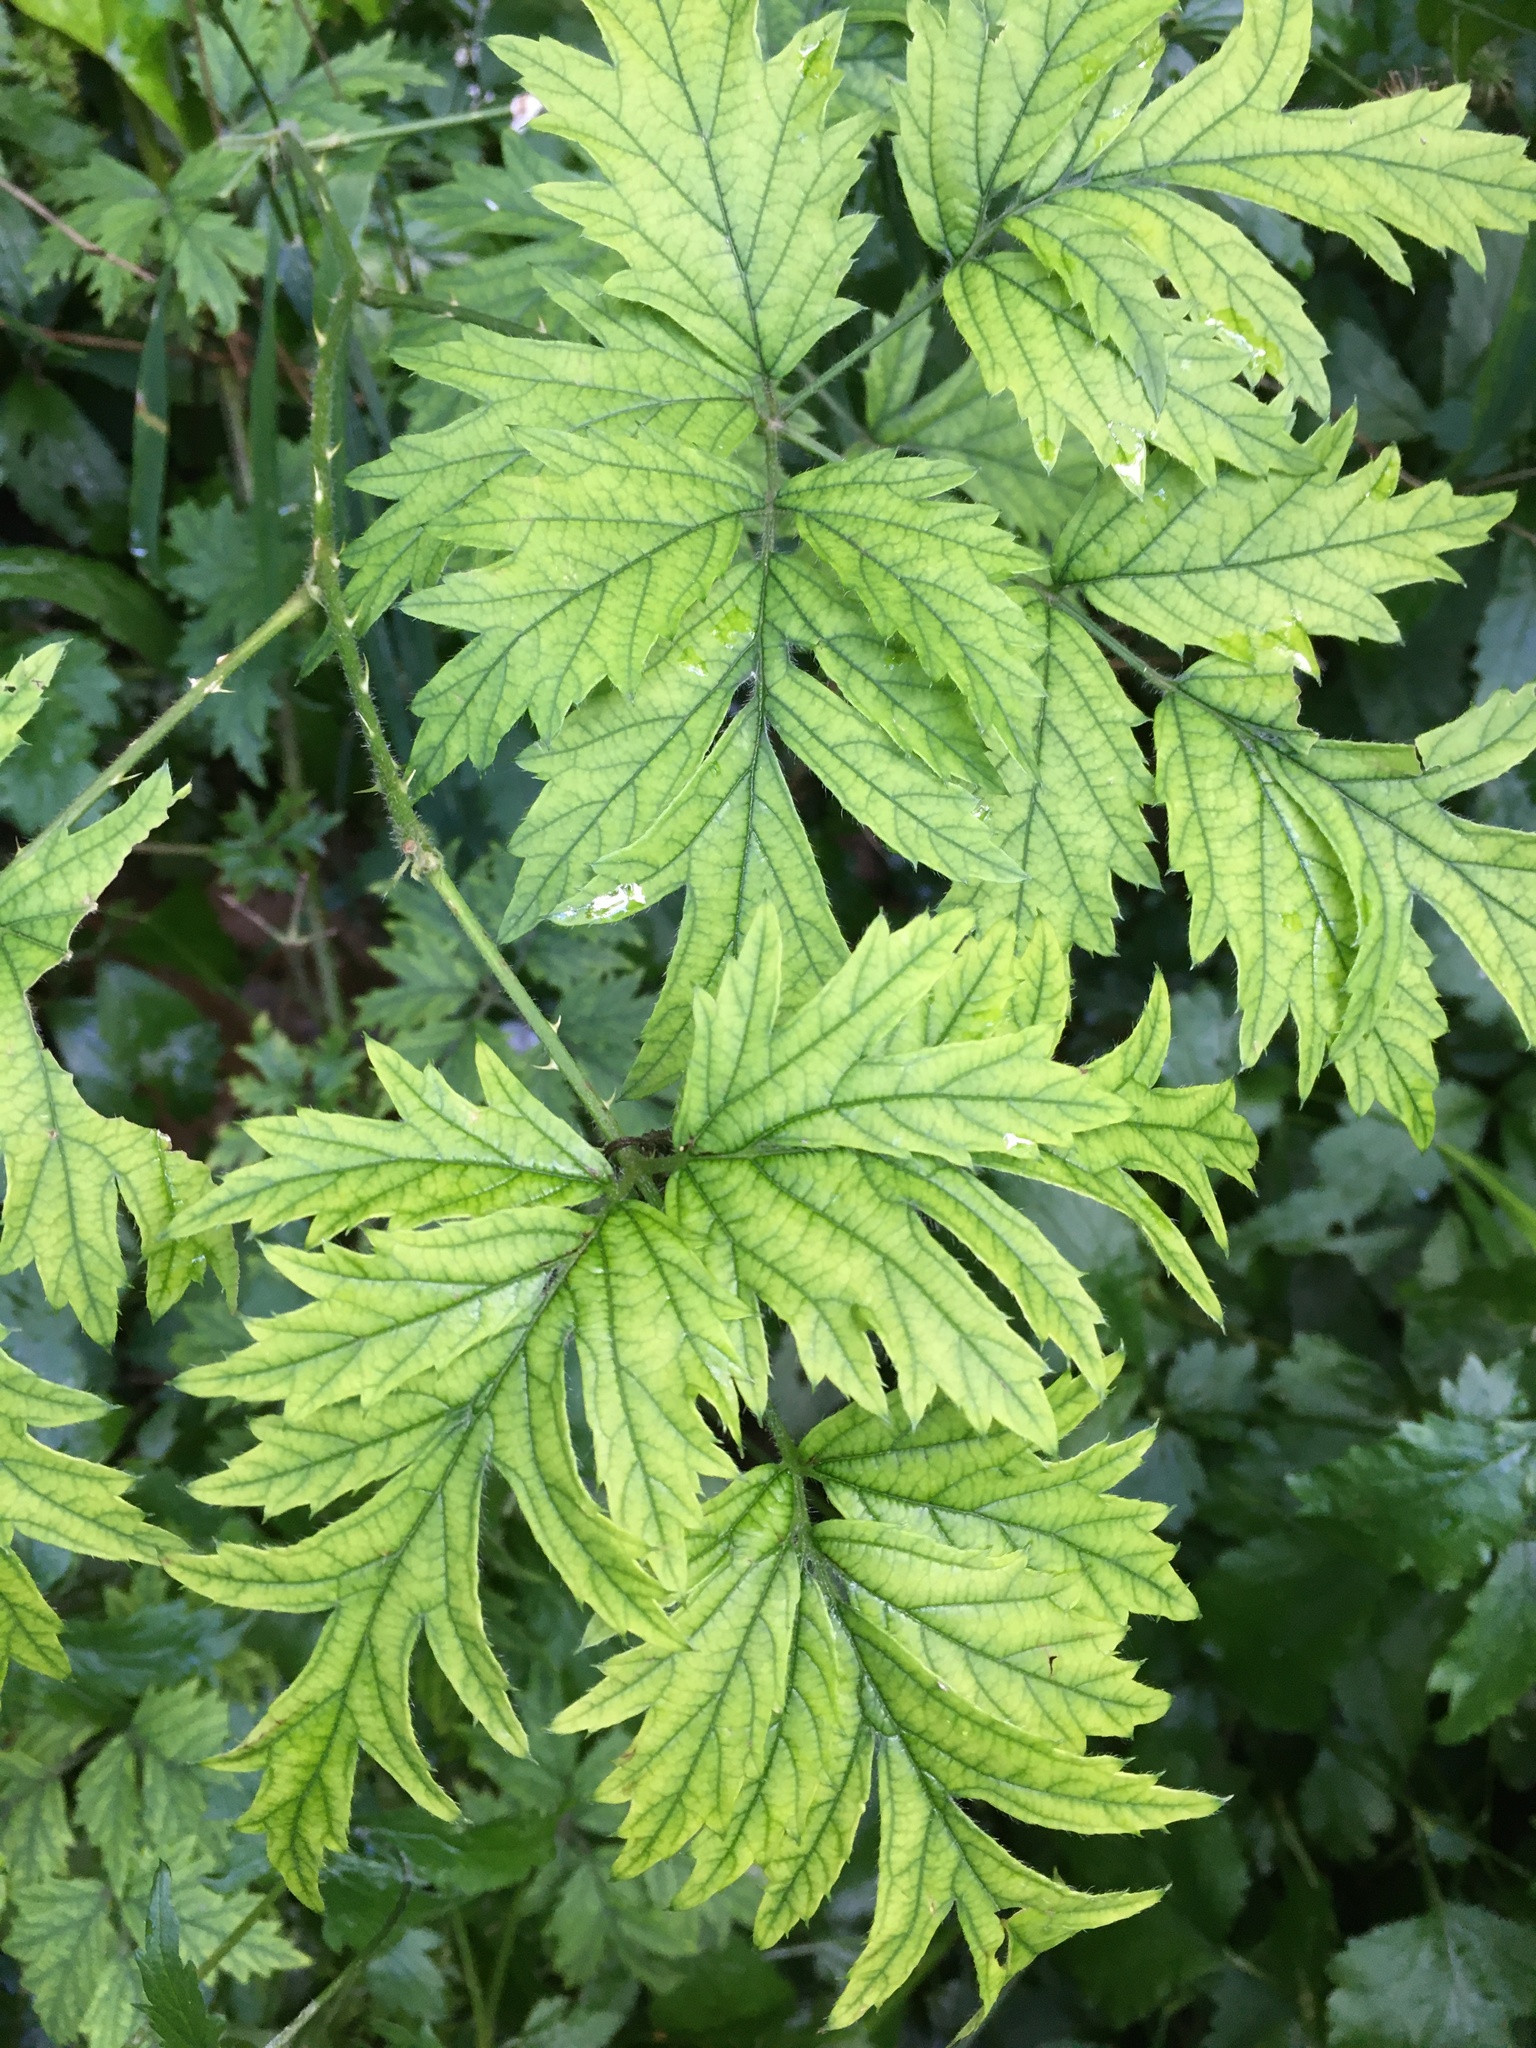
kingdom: Plantae
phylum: Tracheophyta
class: Magnoliopsida
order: Rosales
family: Rosaceae
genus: Rubus
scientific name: Rubus laciniatus
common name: Evergreen blackberry
